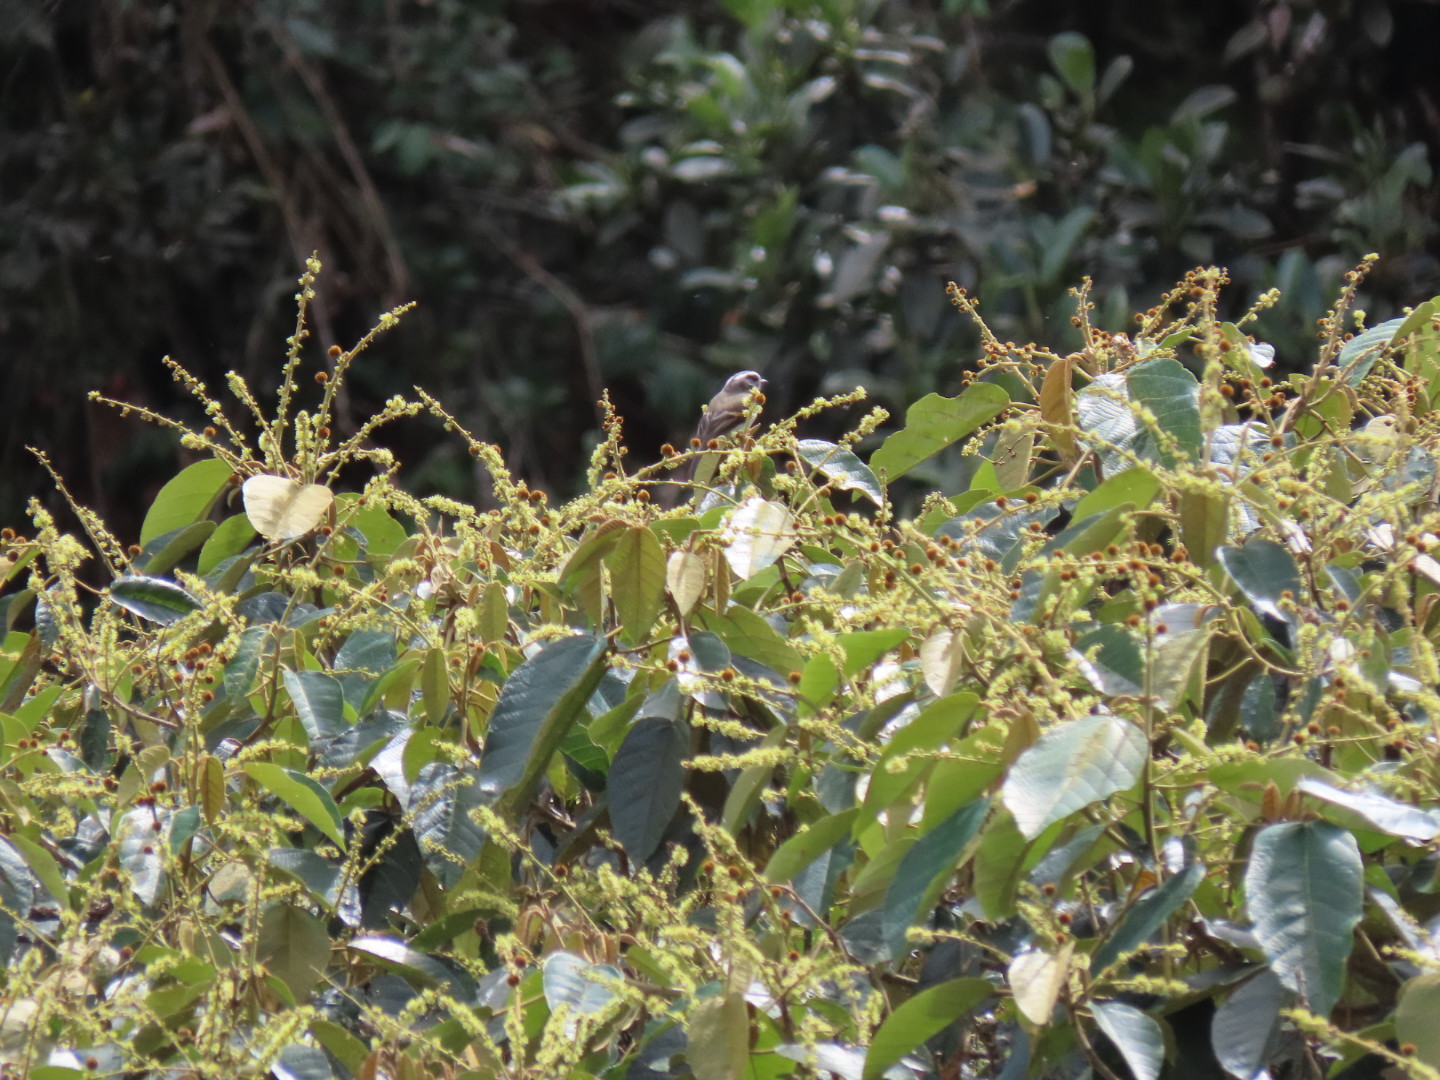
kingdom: Animalia
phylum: Chordata
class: Aves
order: Passeriformes
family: Tyrannidae
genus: Ochthoeca
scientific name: Ochthoeca rufipectoralis
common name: Rufous-breasted chat-tyrant
